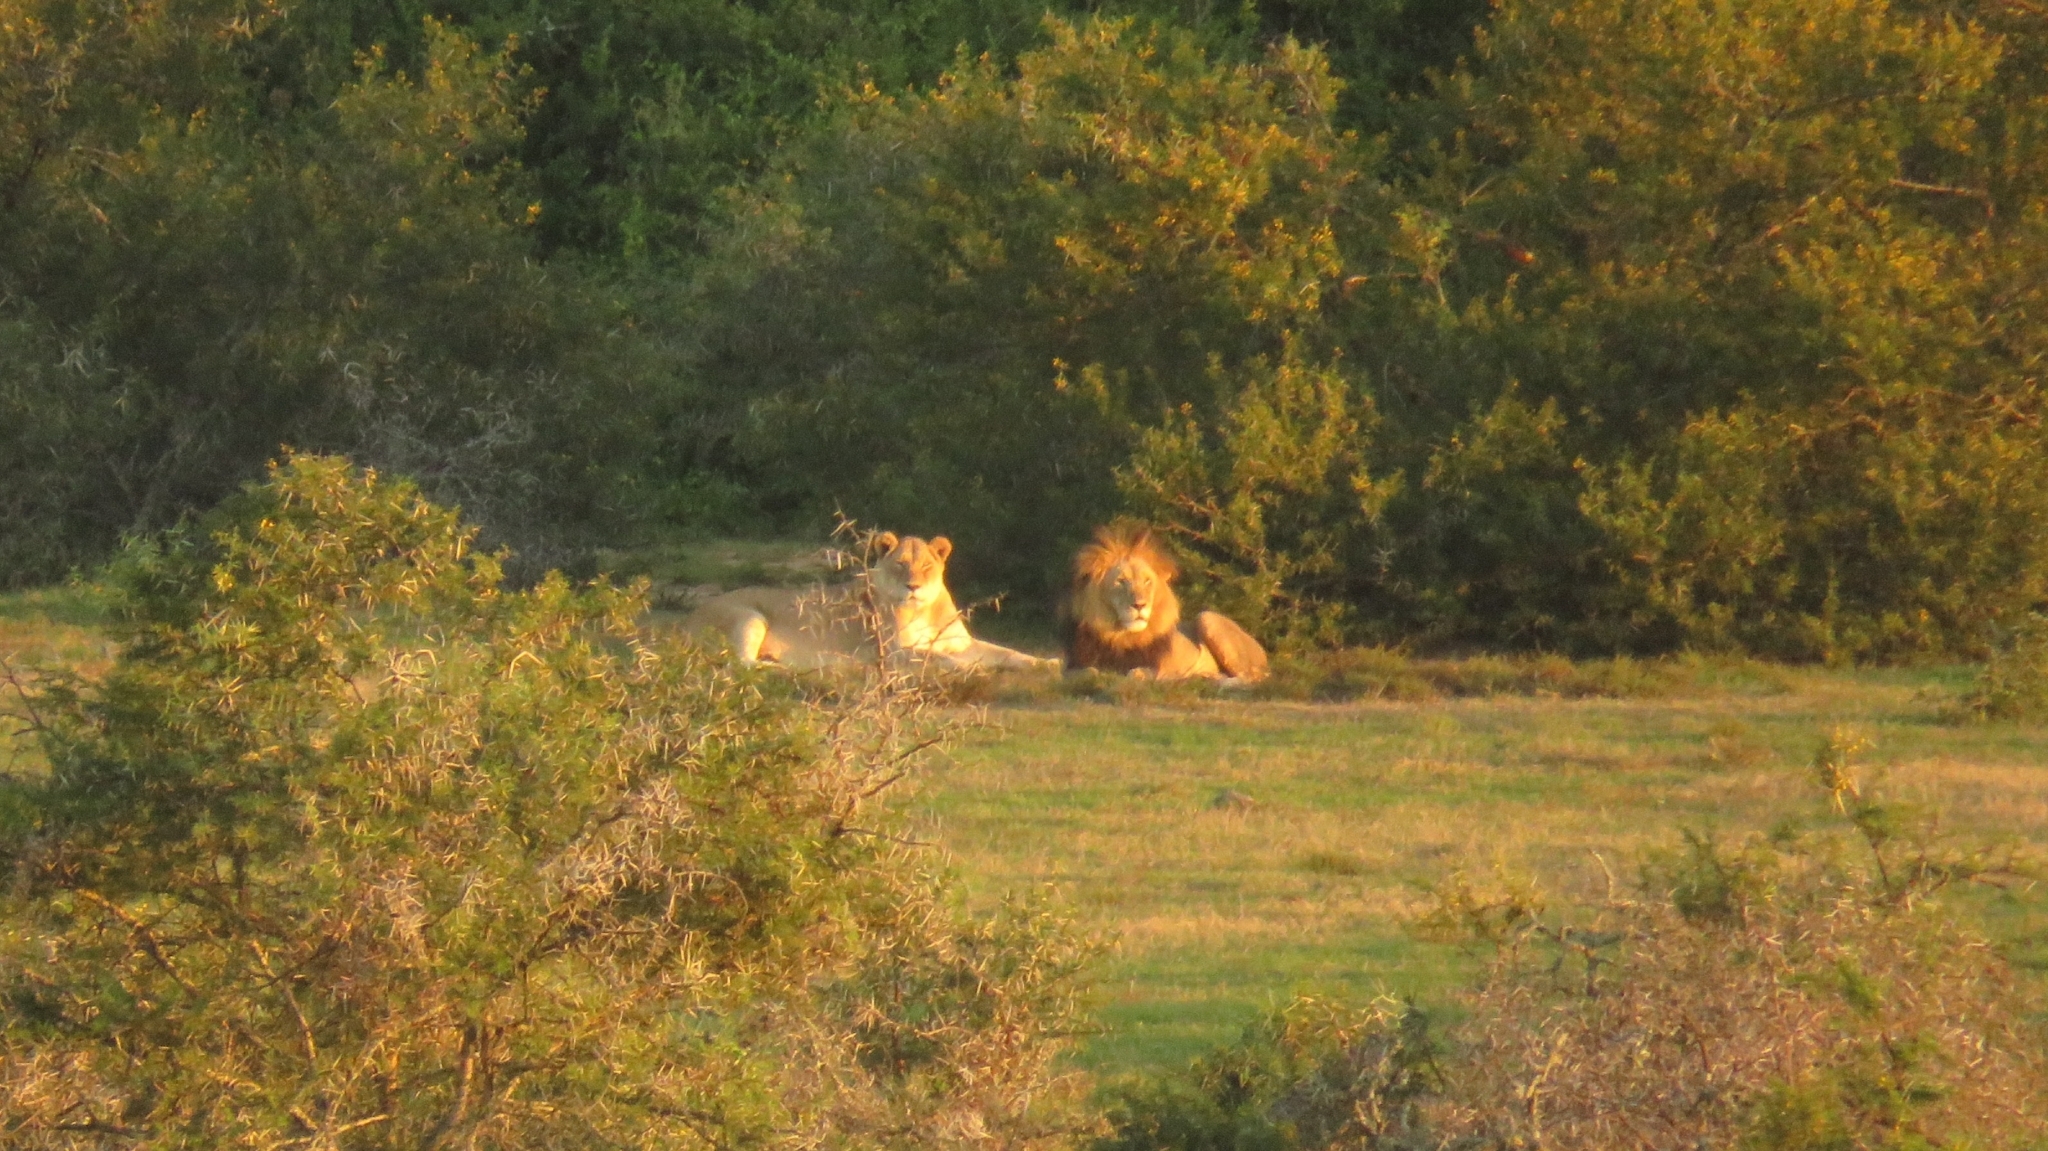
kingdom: Animalia
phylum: Chordata
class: Mammalia
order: Carnivora
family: Felidae
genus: Panthera
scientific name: Panthera leo
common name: Lion
